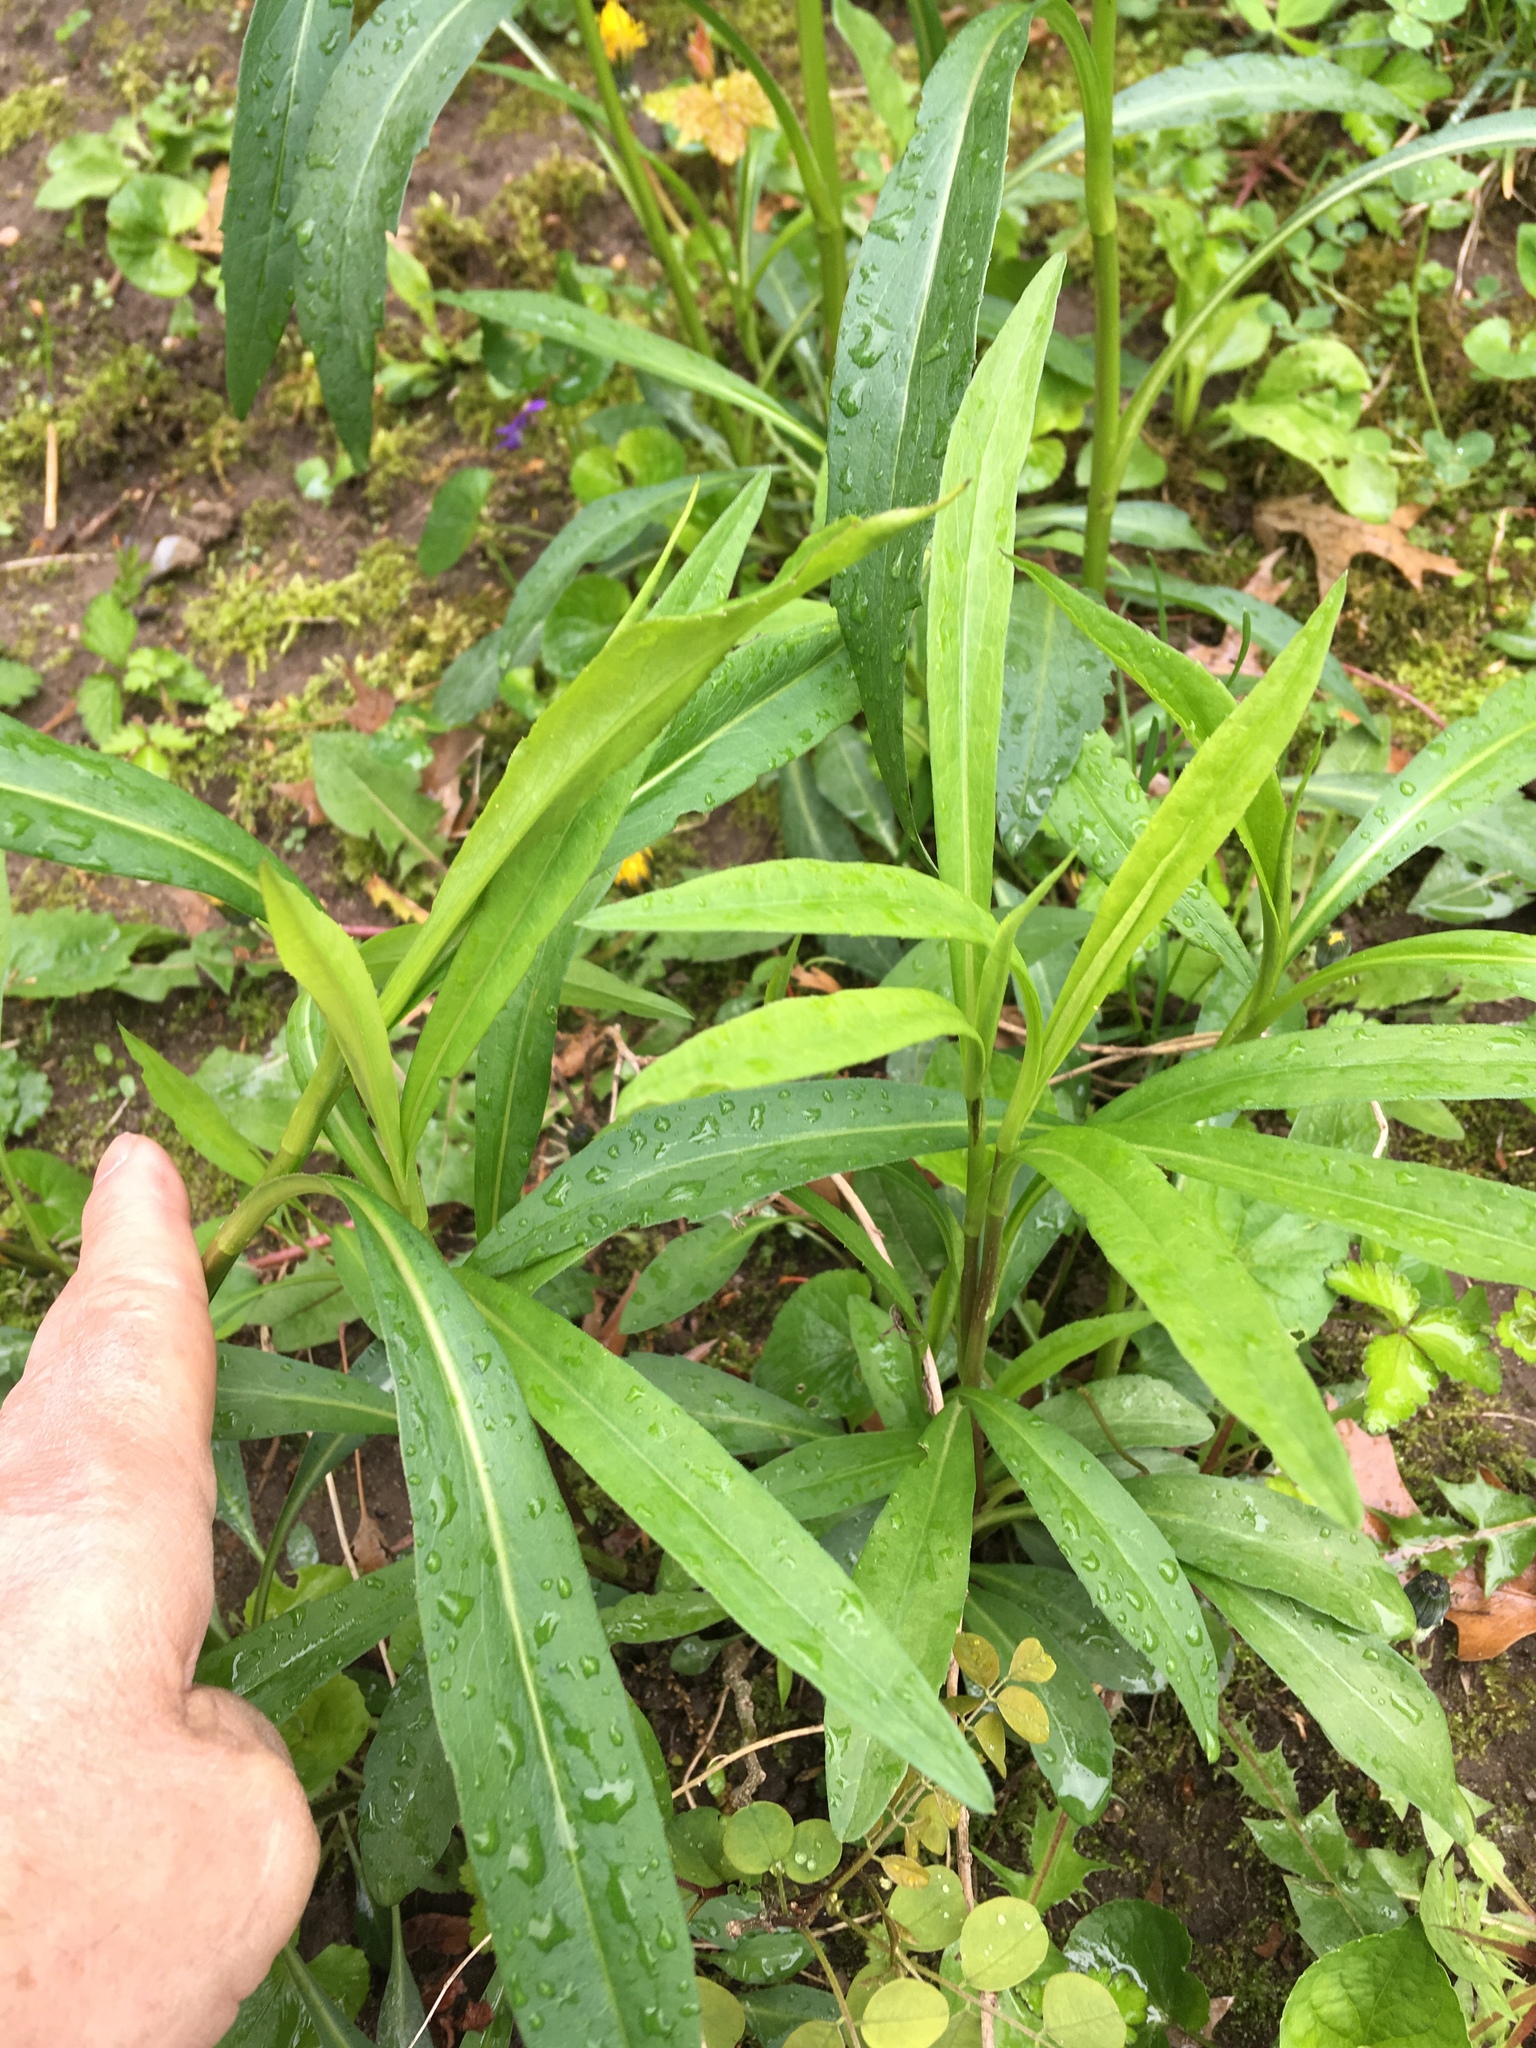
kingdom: Plantae
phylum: Tracheophyta
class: Magnoliopsida
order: Asterales
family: Asteraceae
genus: Symphyotrichum
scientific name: Symphyotrichum lanceolatum
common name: Panicled aster
